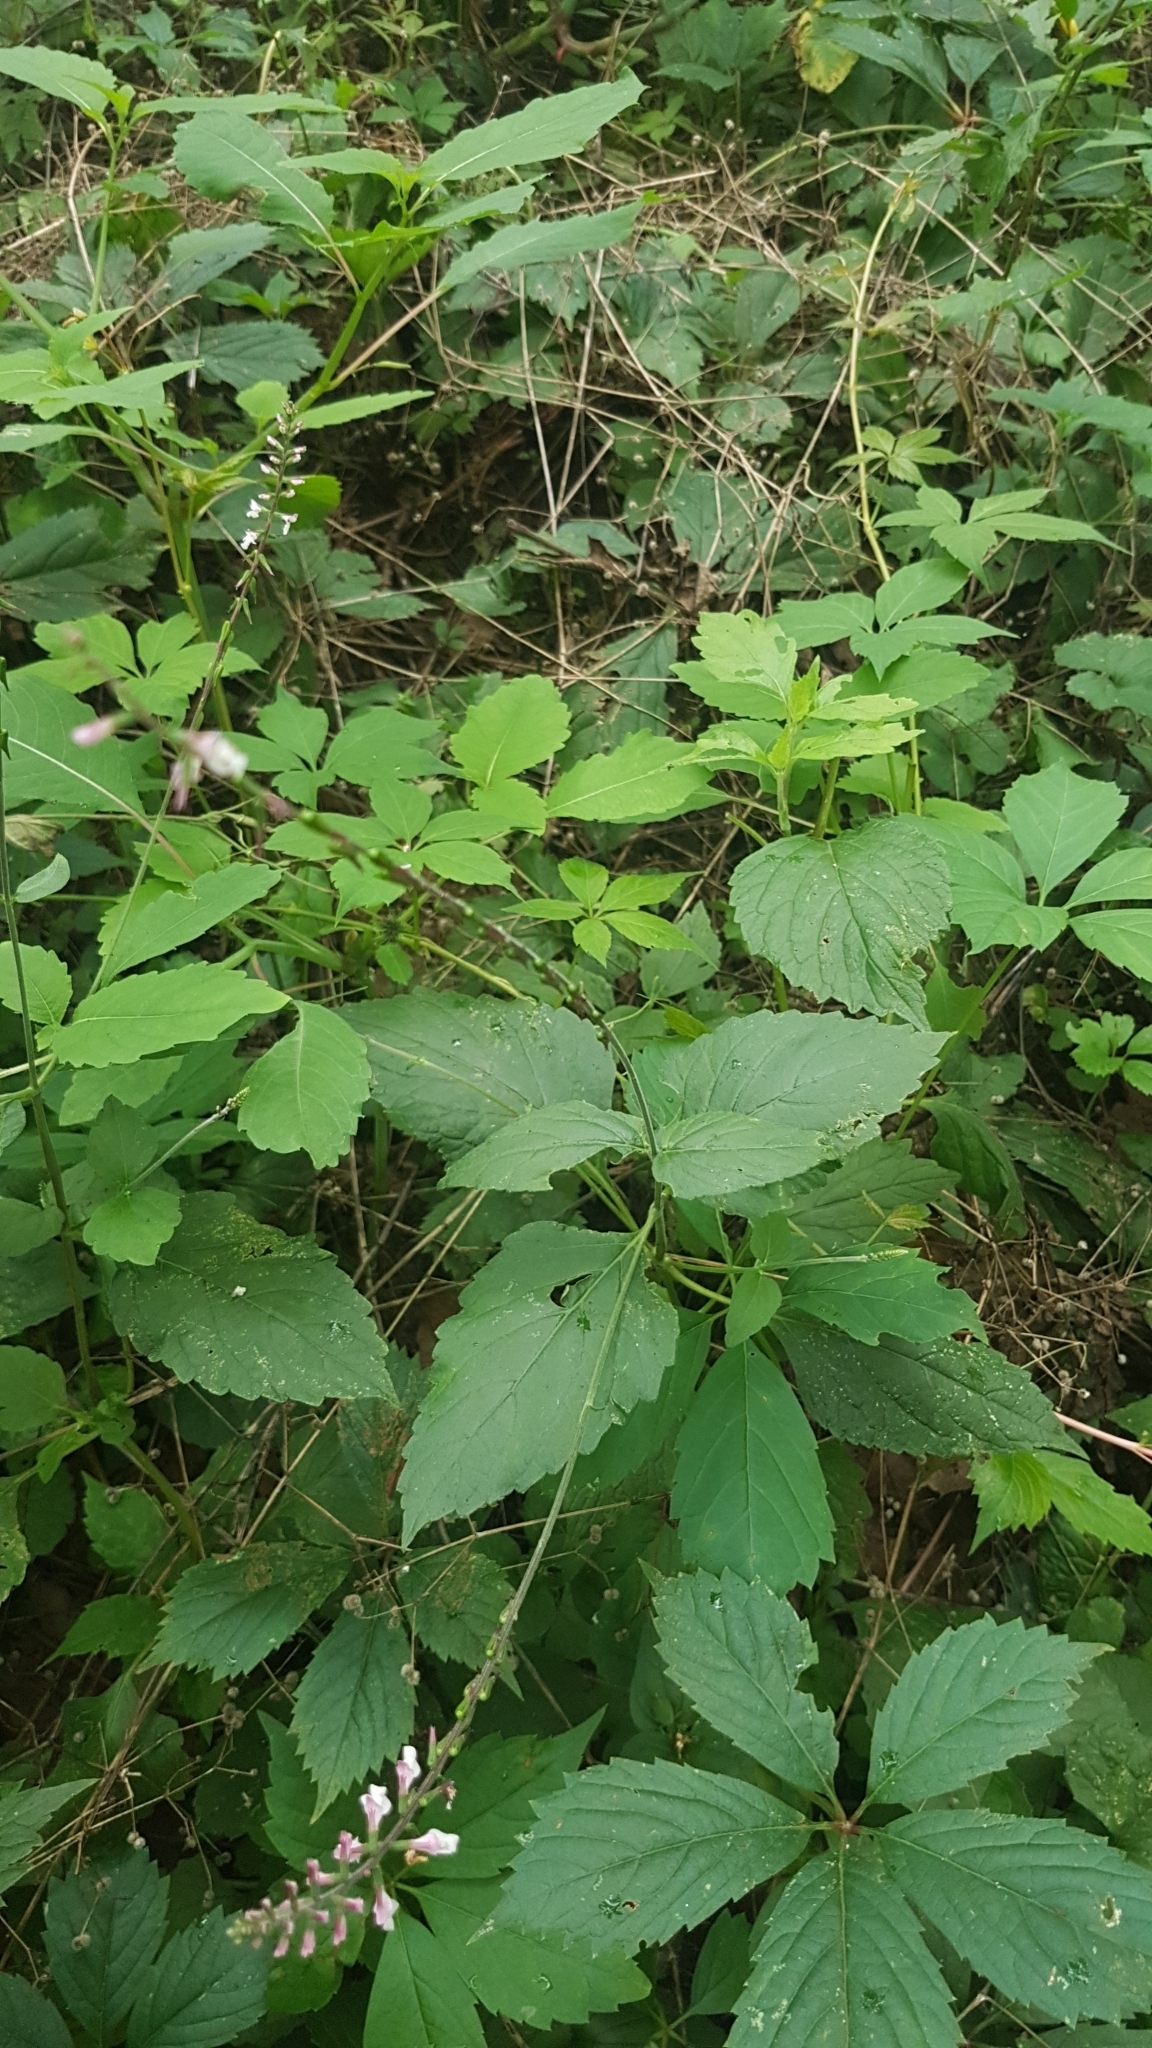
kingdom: Plantae
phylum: Tracheophyta
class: Magnoliopsida
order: Lamiales
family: Phrymaceae
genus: Phryma
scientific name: Phryma leptostachya
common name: American lopseed
